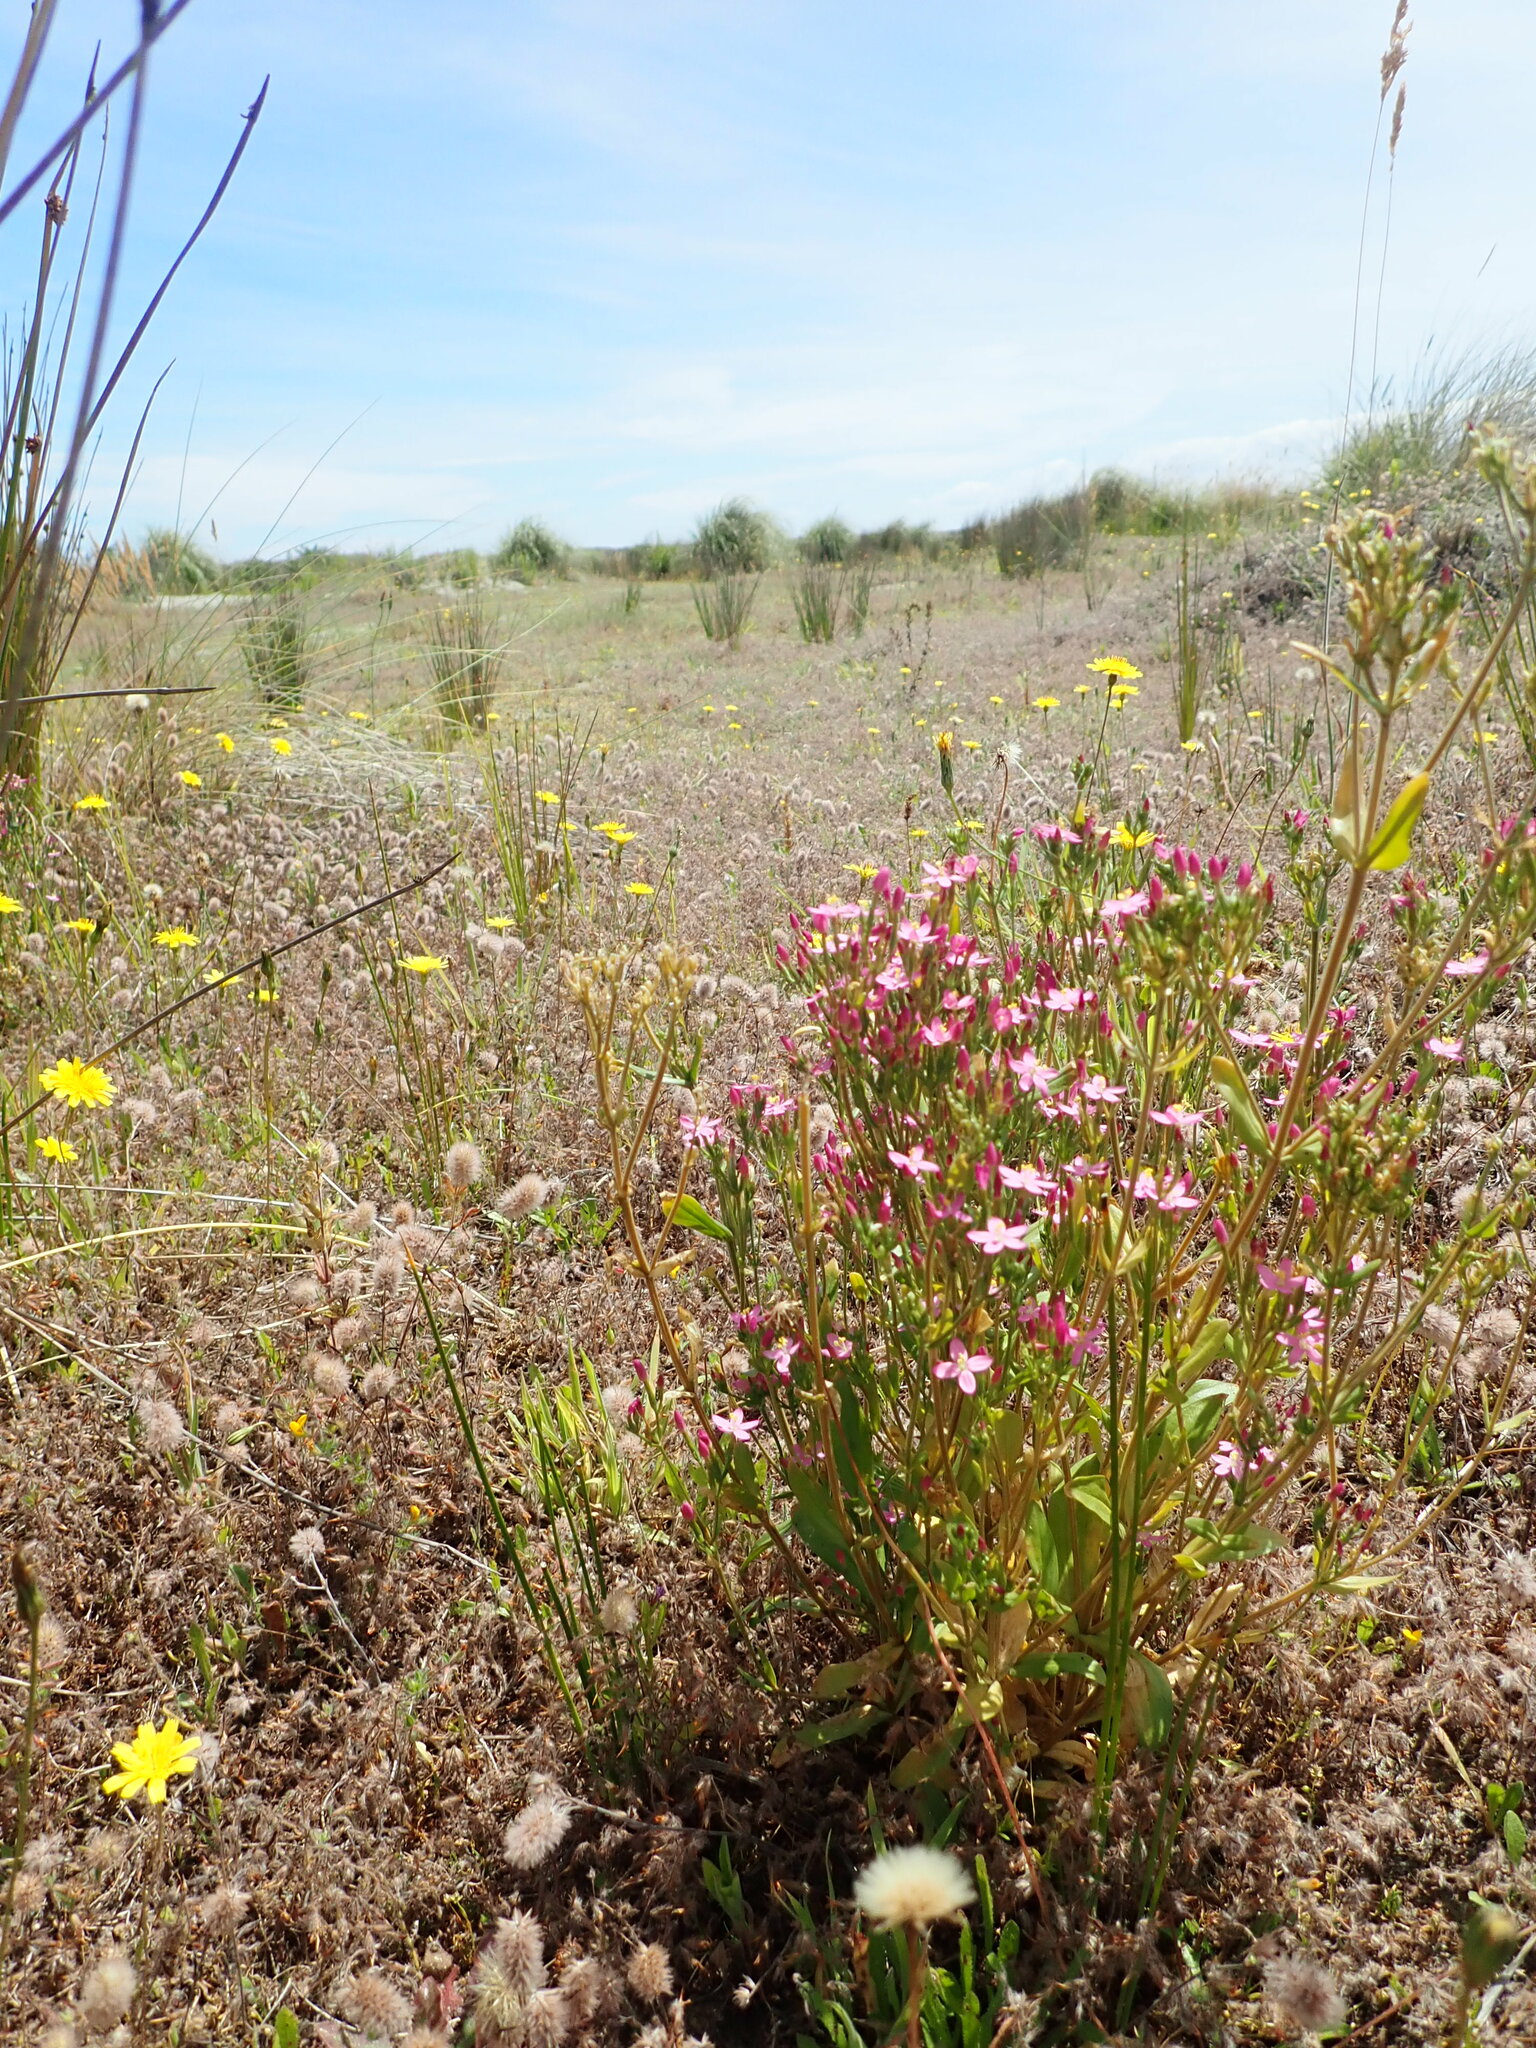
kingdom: Plantae
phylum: Tracheophyta
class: Magnoliopsida
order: Gentianales
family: Gentianaceae
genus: Centaurium
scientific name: Centaurium erythraea
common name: Common centaury
